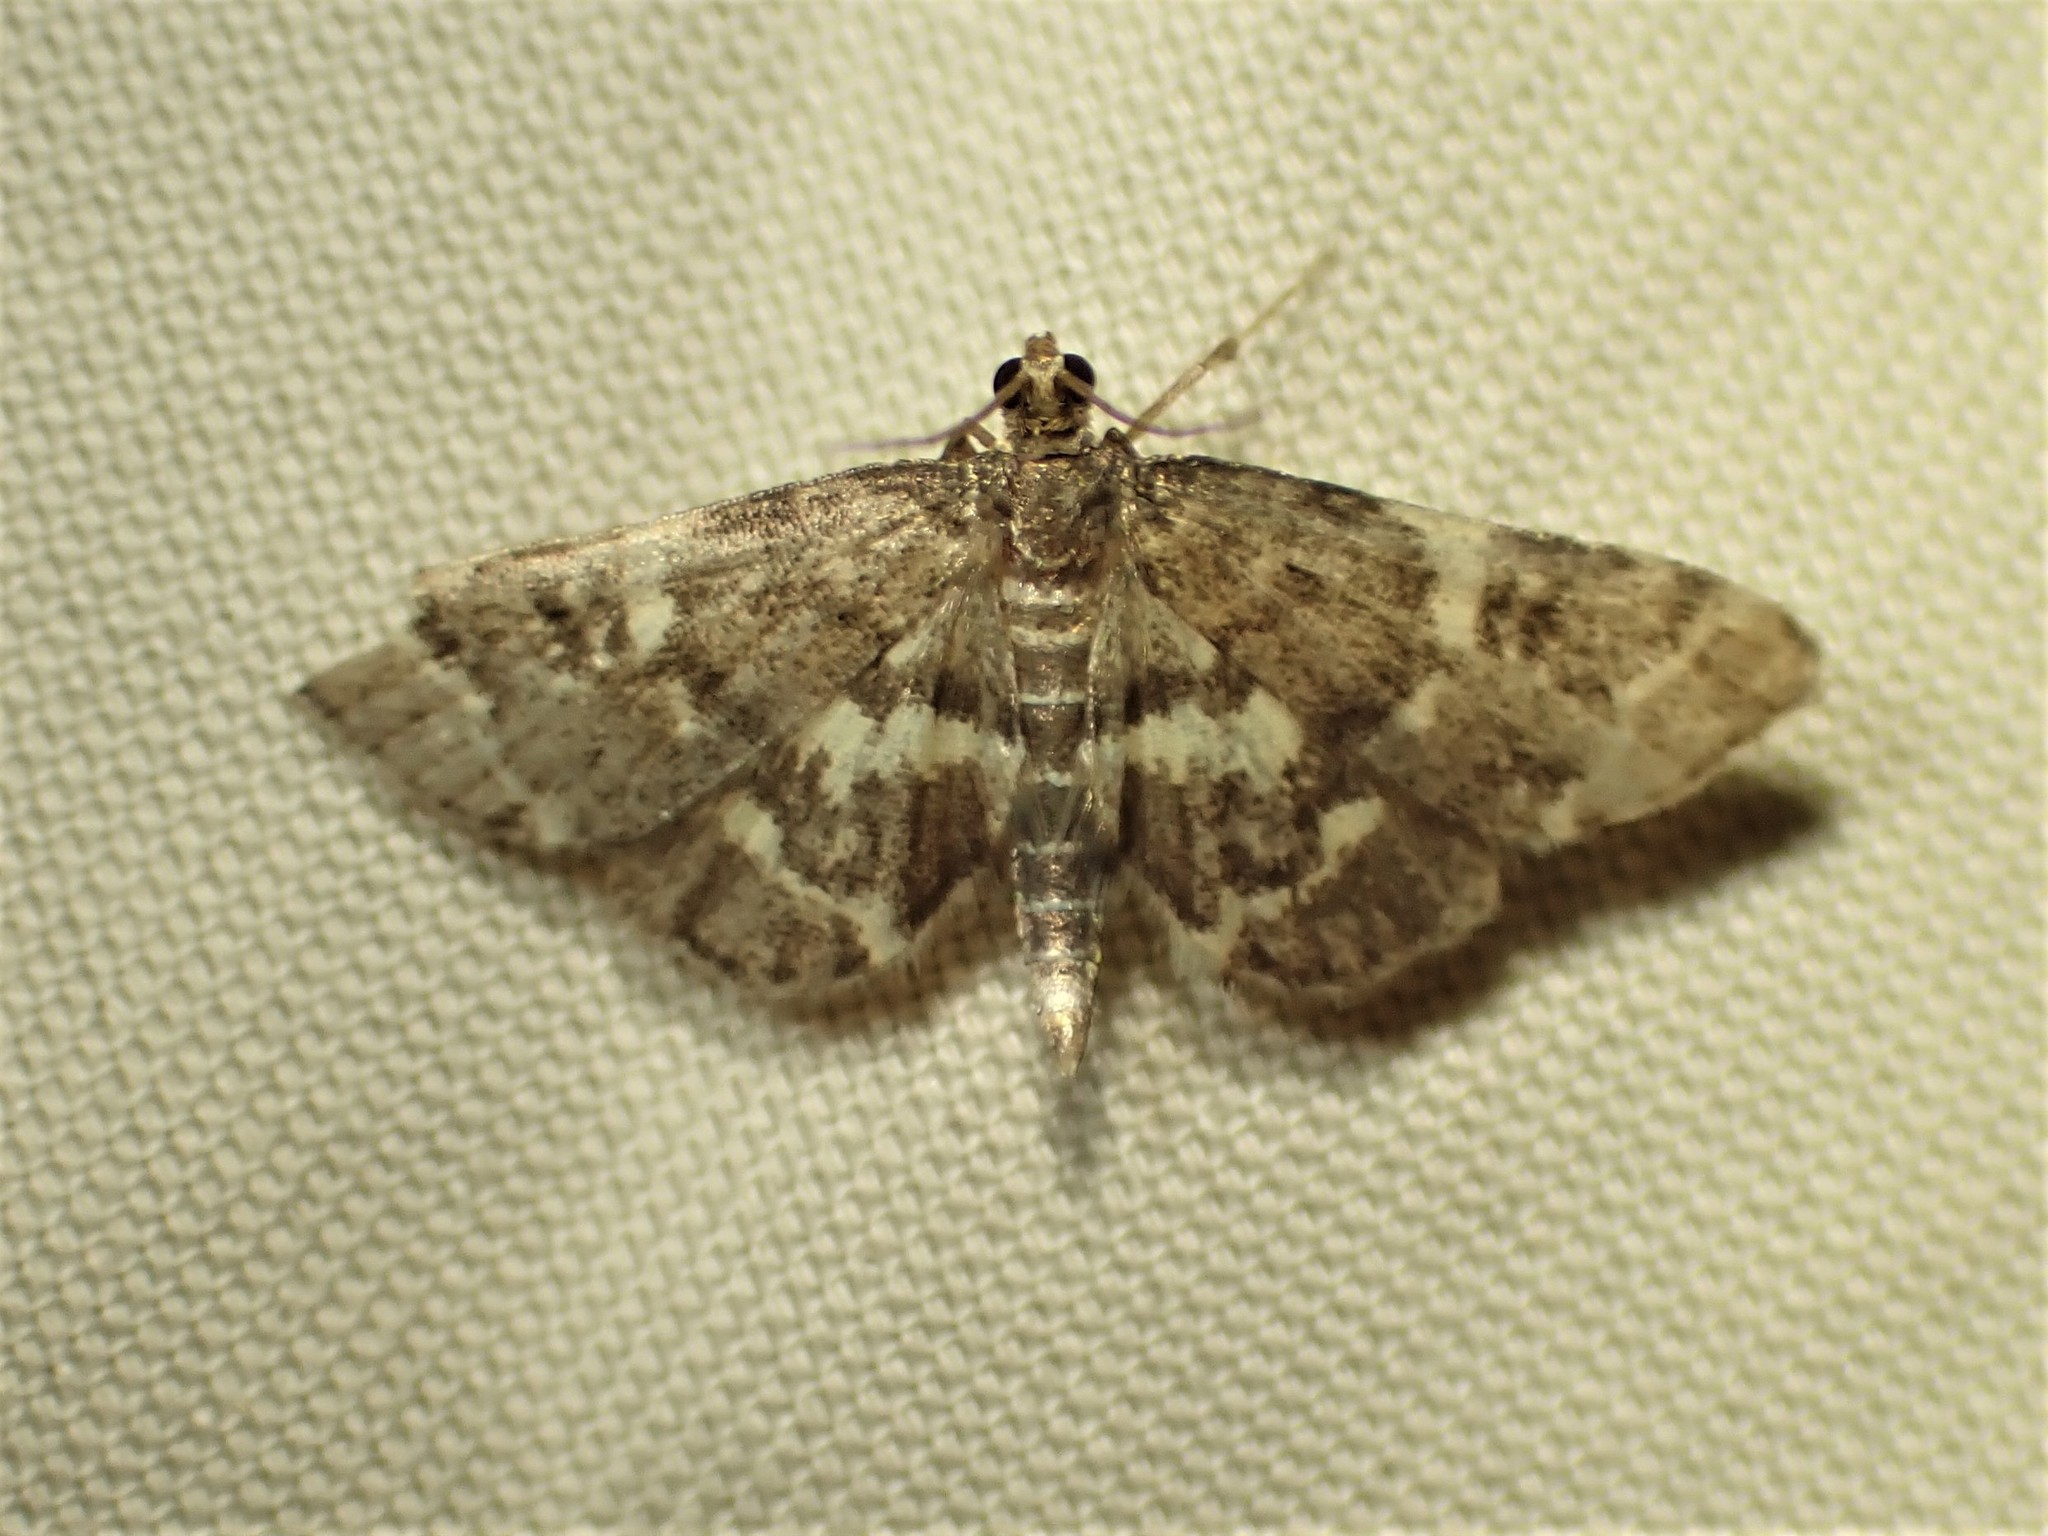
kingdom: Animalia
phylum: Arthropoda
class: Insecta
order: Lepidoptera
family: Crambidae
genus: Anageshna
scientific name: Anageshna primordialis
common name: Yellow-spotted webworm moth
